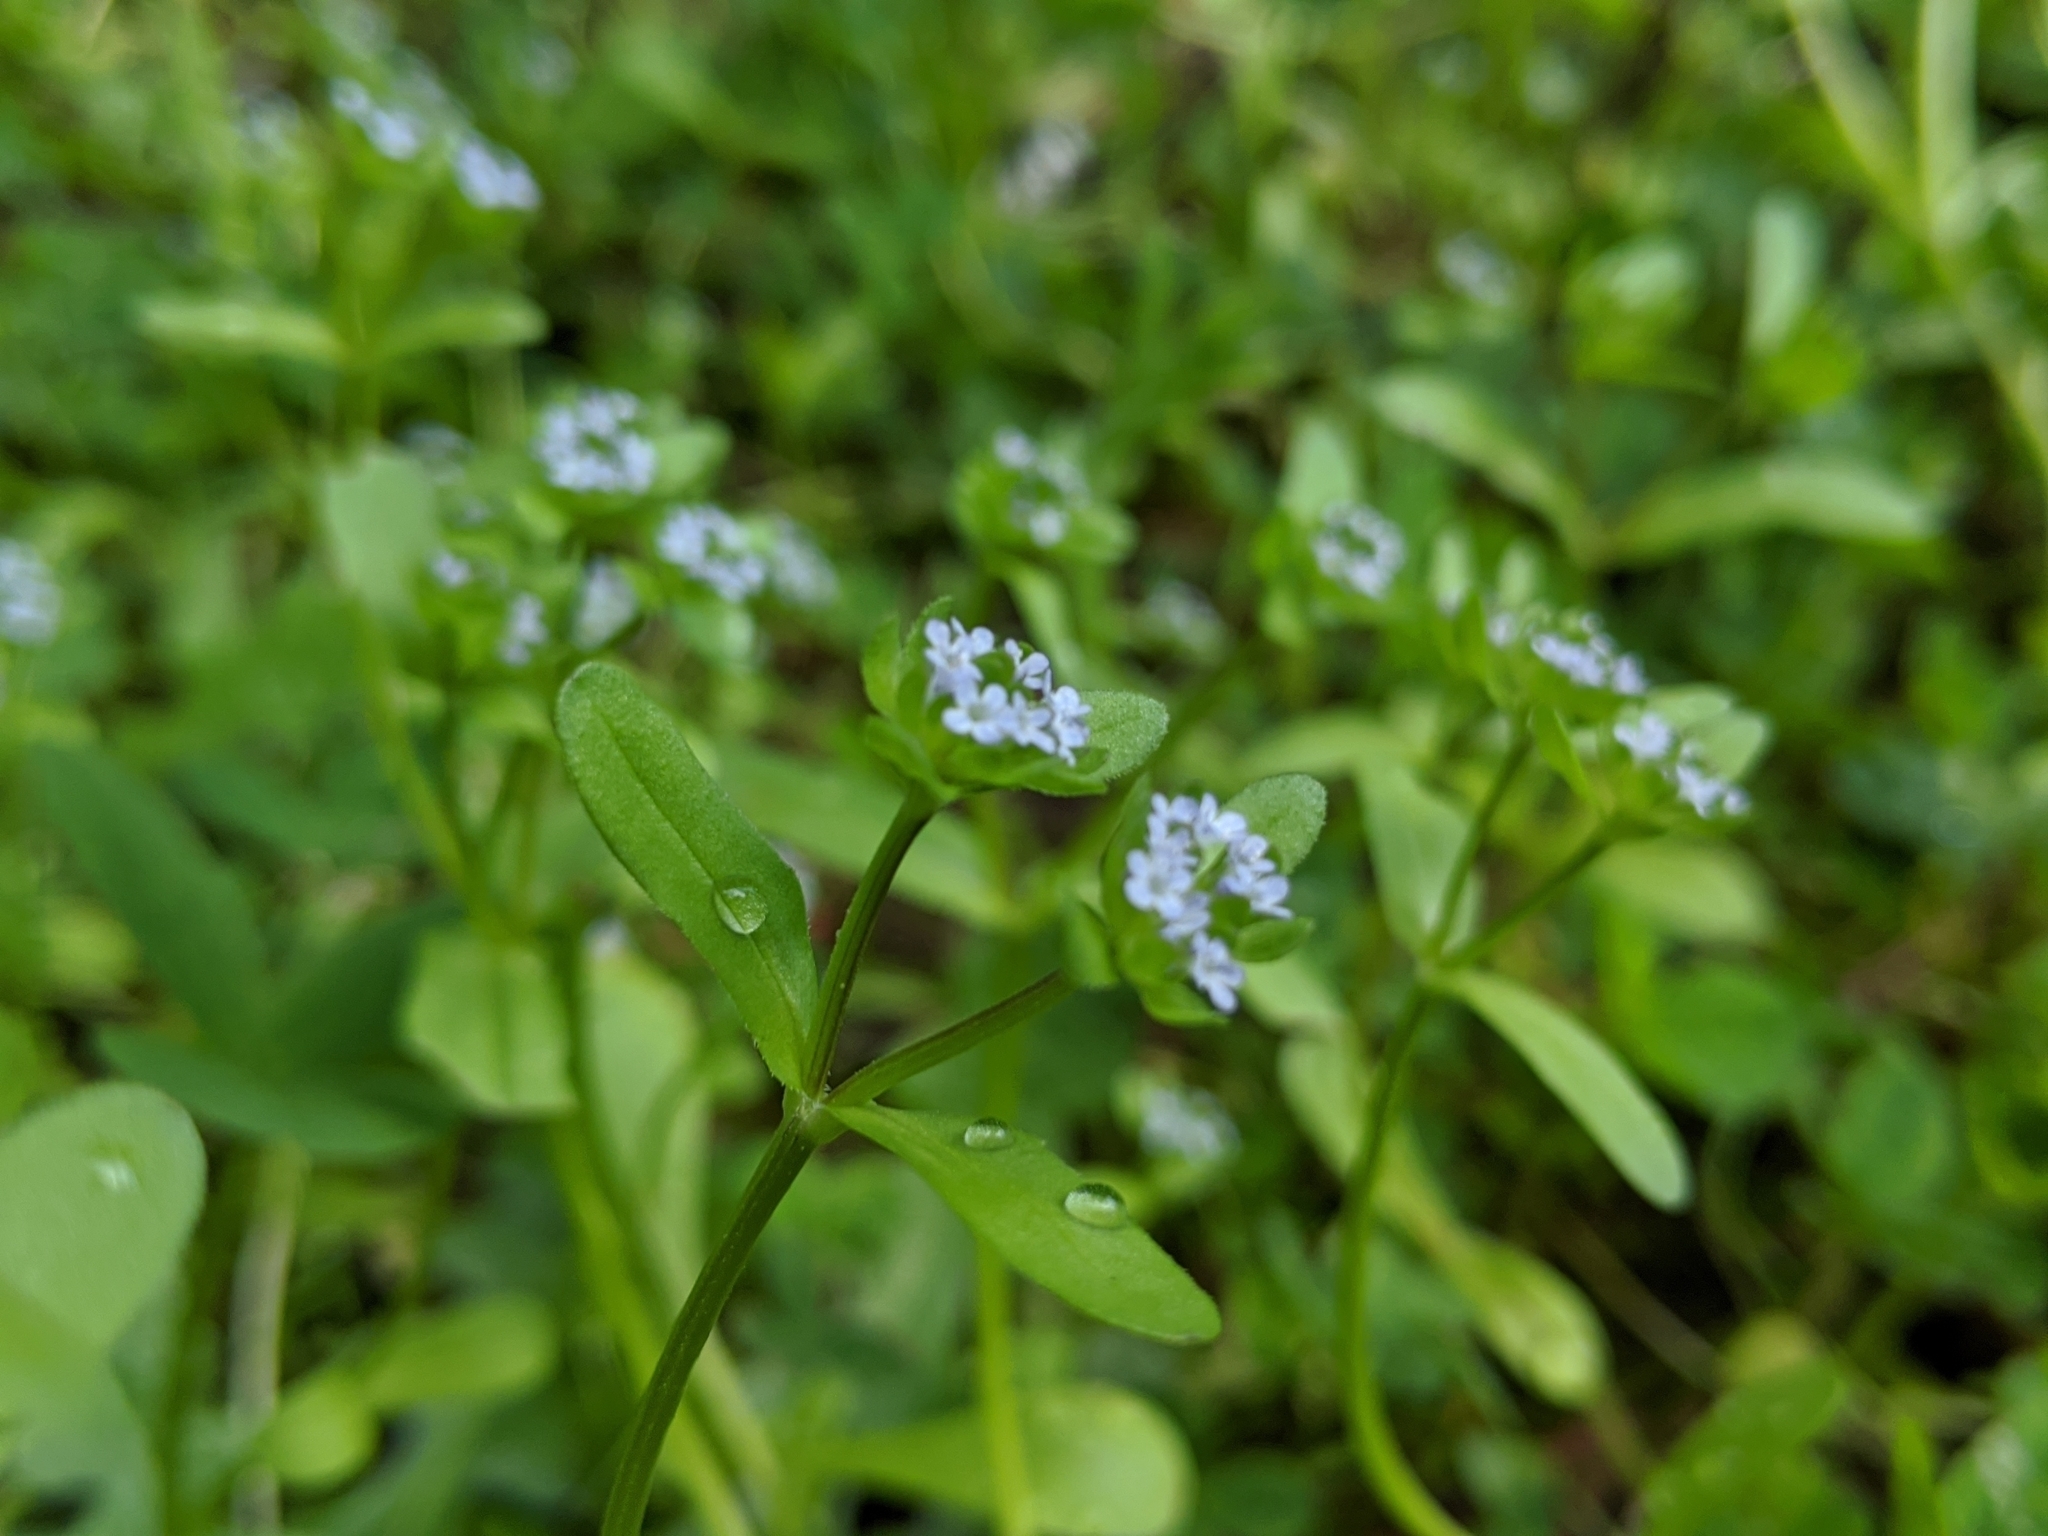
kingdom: Plantae
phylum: Tracheophyta
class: Magnoliopsida
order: Dipsacales
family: Caprifoliaceae
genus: Valerianella
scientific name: Valerianella locusta
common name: Common cornsalad
